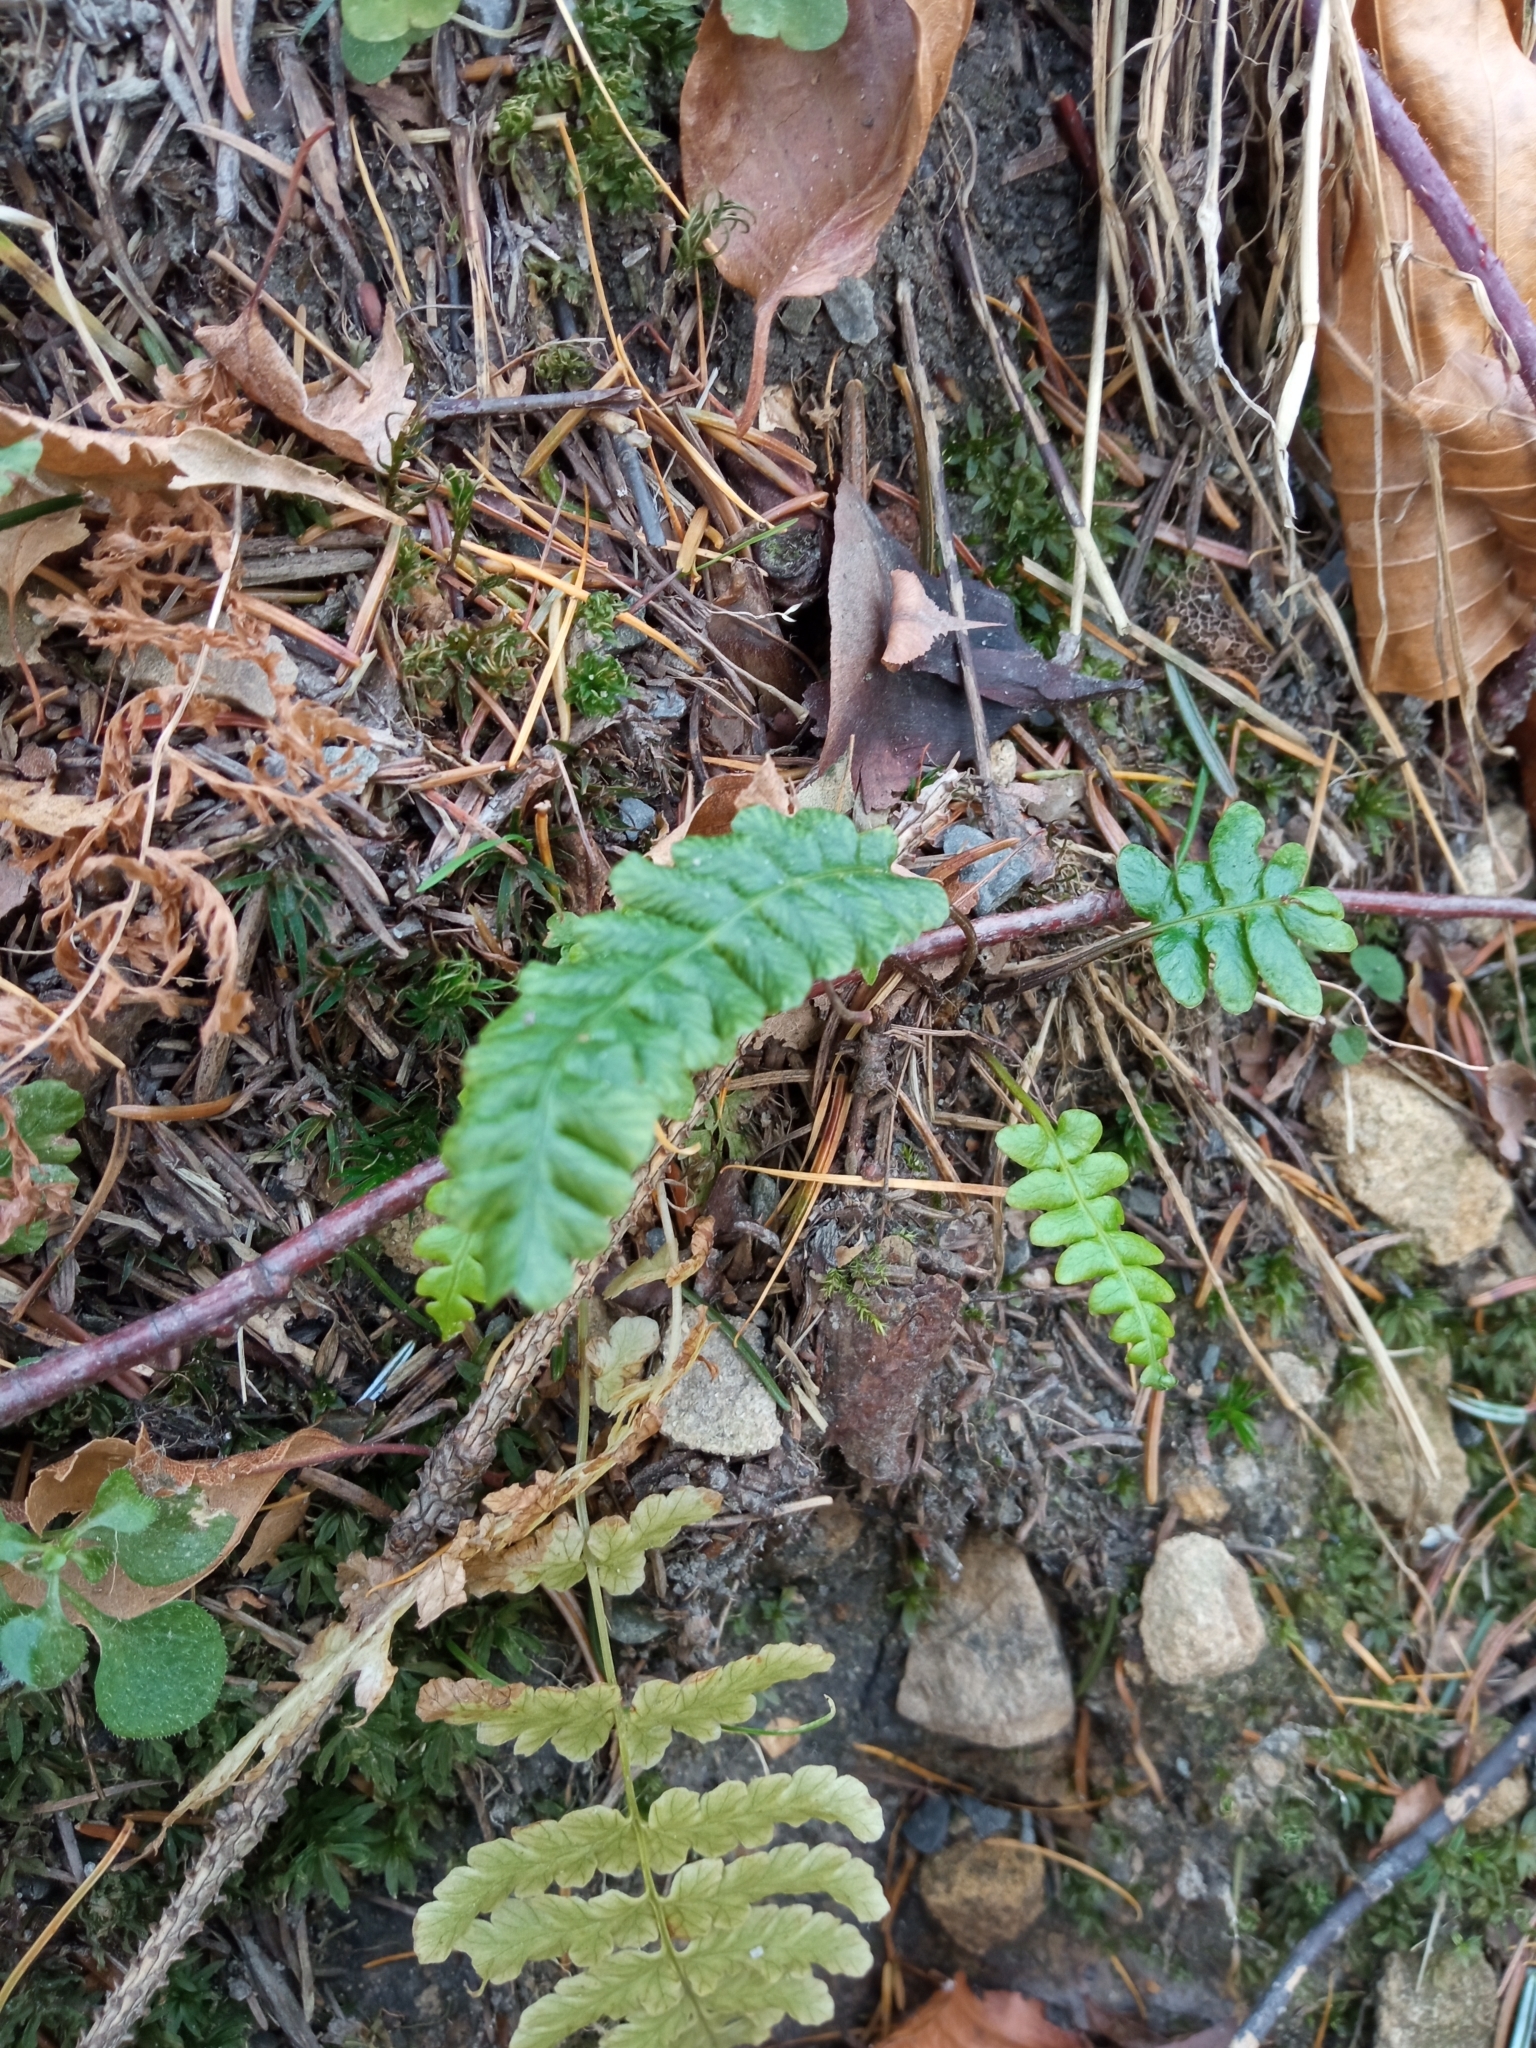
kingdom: Plantae
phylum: Tracheophyta
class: Polypodiopsida
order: Polypodiales
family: Blechnaceae
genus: Struthiopteris
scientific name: Struthiopteris spicant
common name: Deer fern
